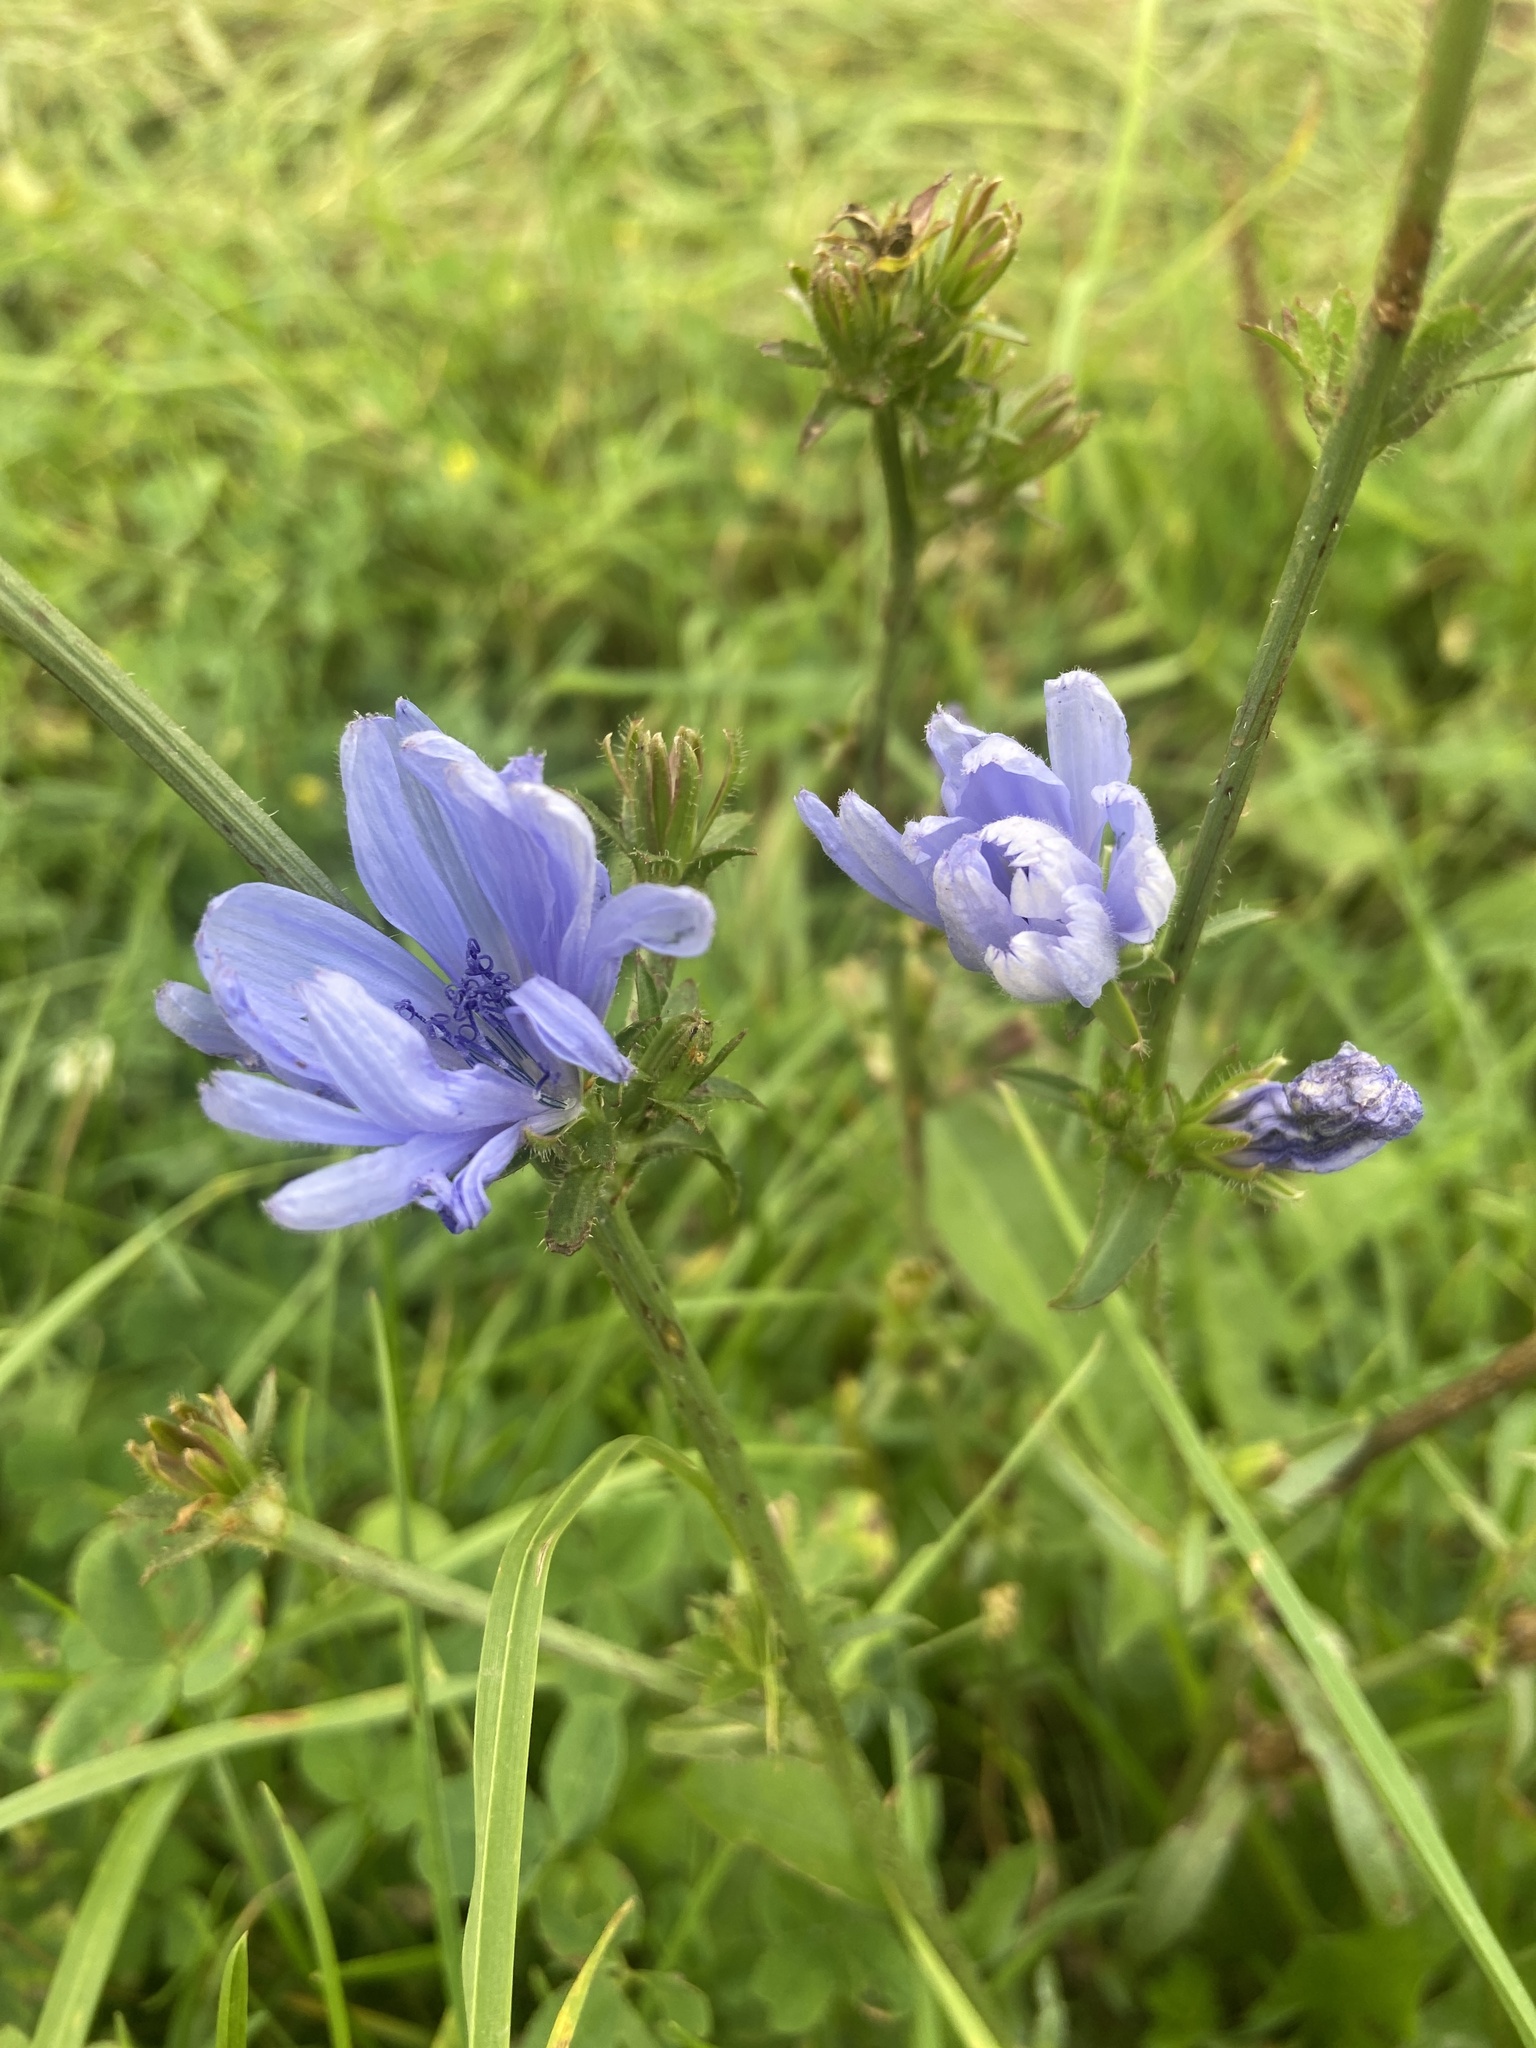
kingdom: Plantae
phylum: Tracheophyta
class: Magnoliopsida
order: Asterales
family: Asteraceae
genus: Cichorium
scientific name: Cichorium intybus
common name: Chicory
